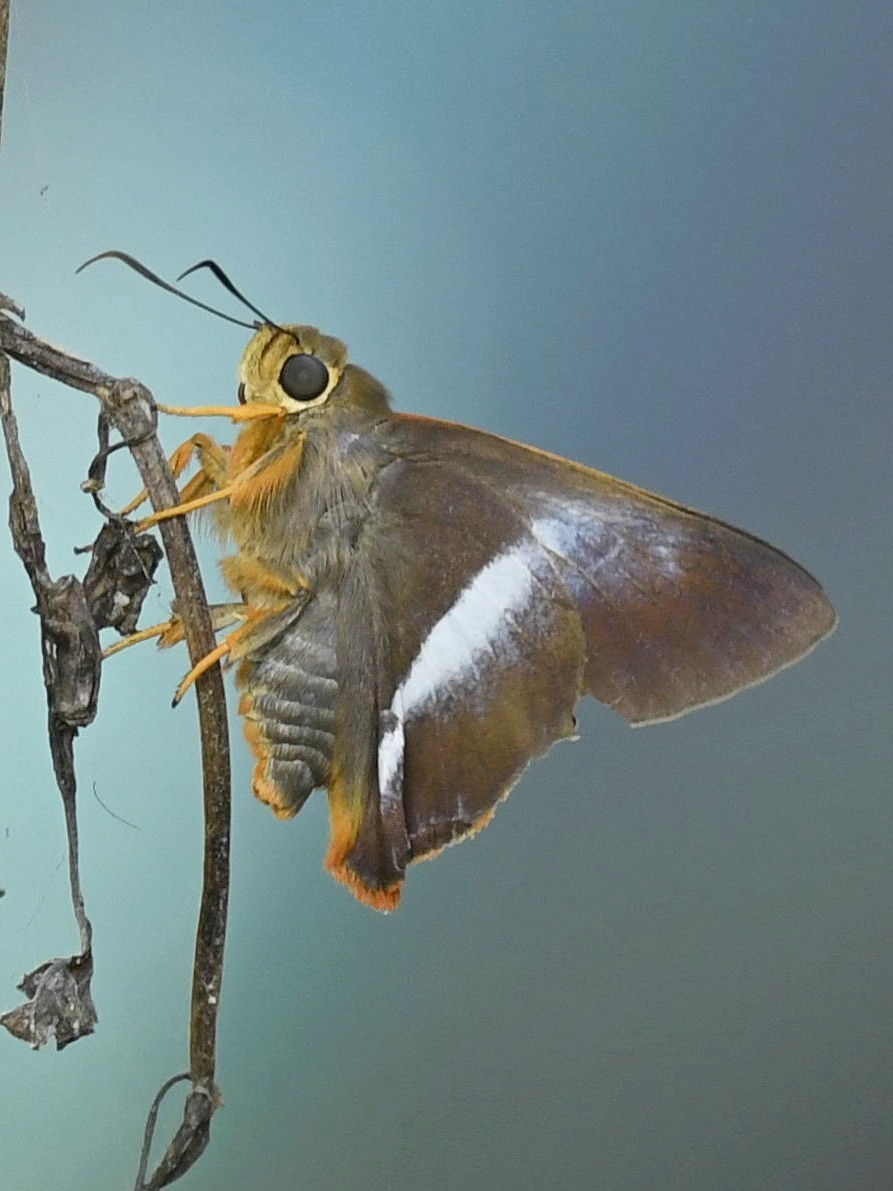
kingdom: Animalia
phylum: Arthropoda
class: Insecta
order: Lepidoptera
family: Hesperiidae
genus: Bibasis
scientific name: Bibasis sena
